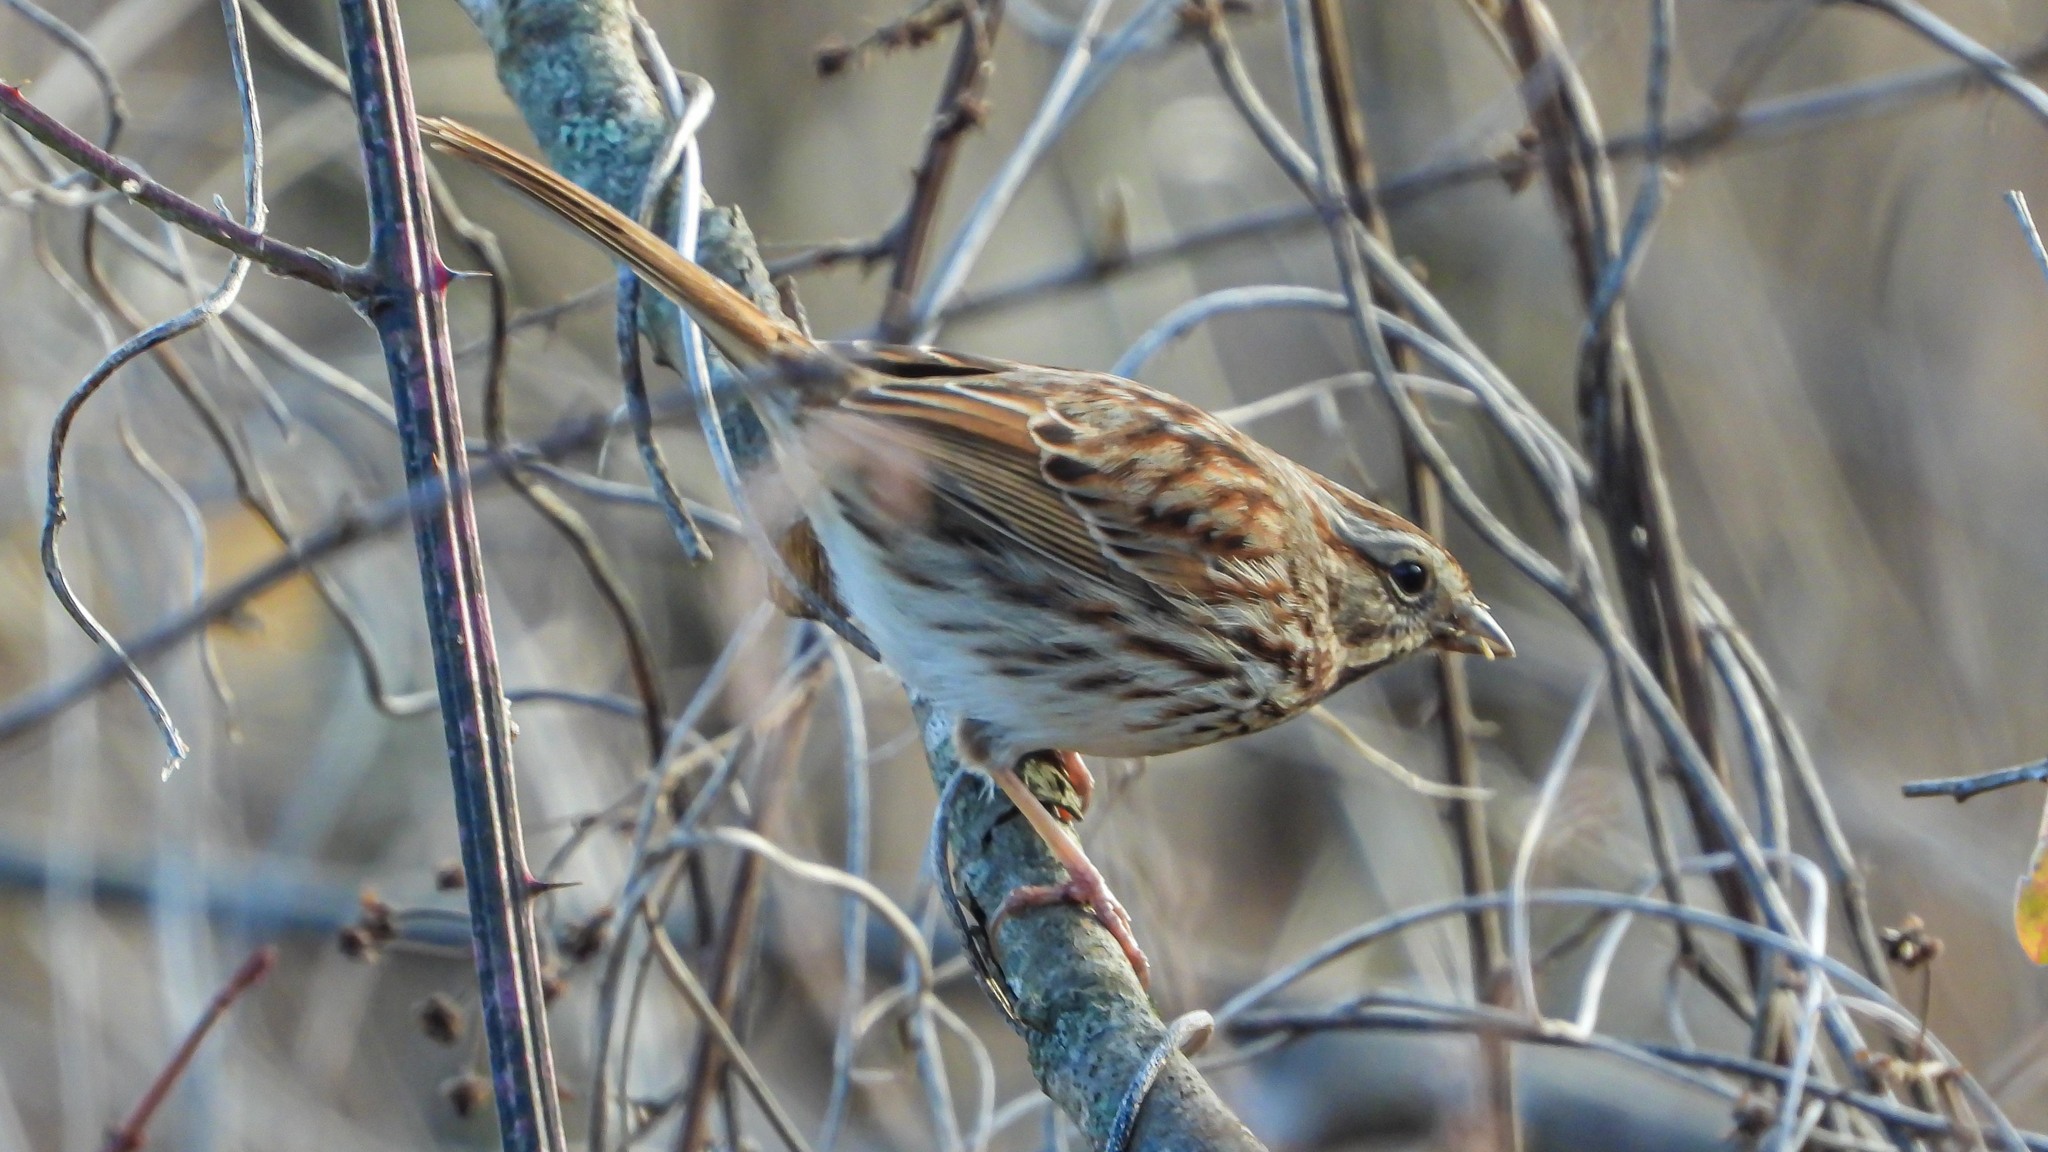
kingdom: Animalia
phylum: Chordata
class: Aves
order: Passeriformes
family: Passerellidae
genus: Melospiza
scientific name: Melospiza melodia
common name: Song sparrow
